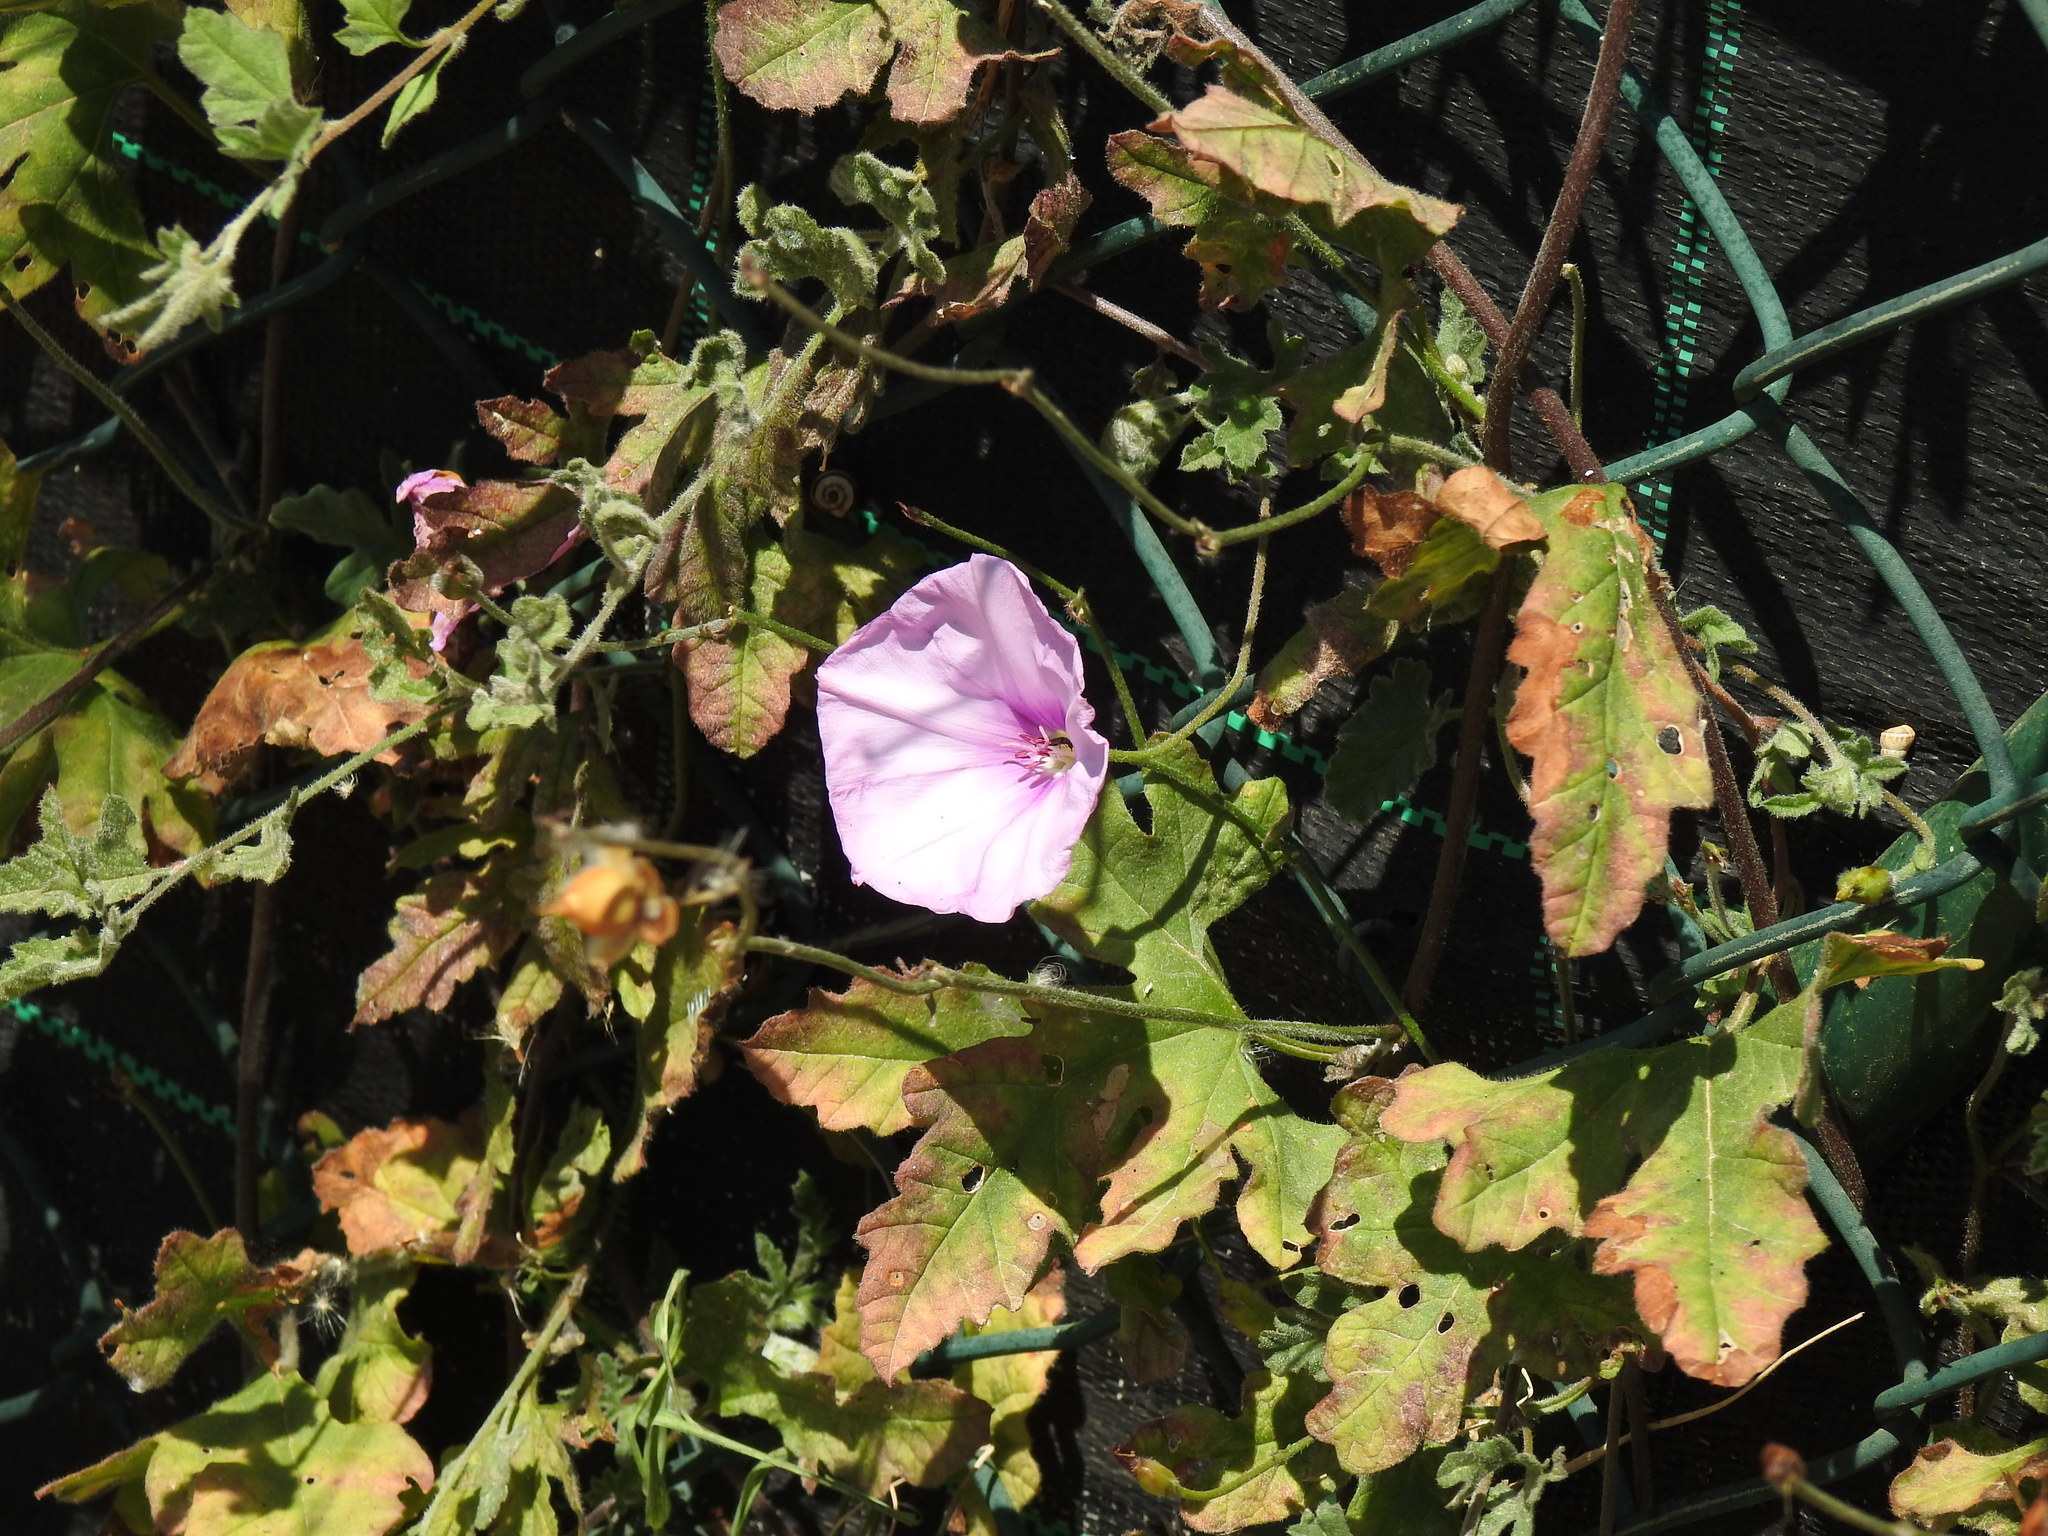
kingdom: Plantae
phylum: Tracheophyta
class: Magnoliopsida
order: Solanales
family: Convolvulaceae
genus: Convolvulus
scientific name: Convolvulus althaeoides
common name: Mallow bindweed
